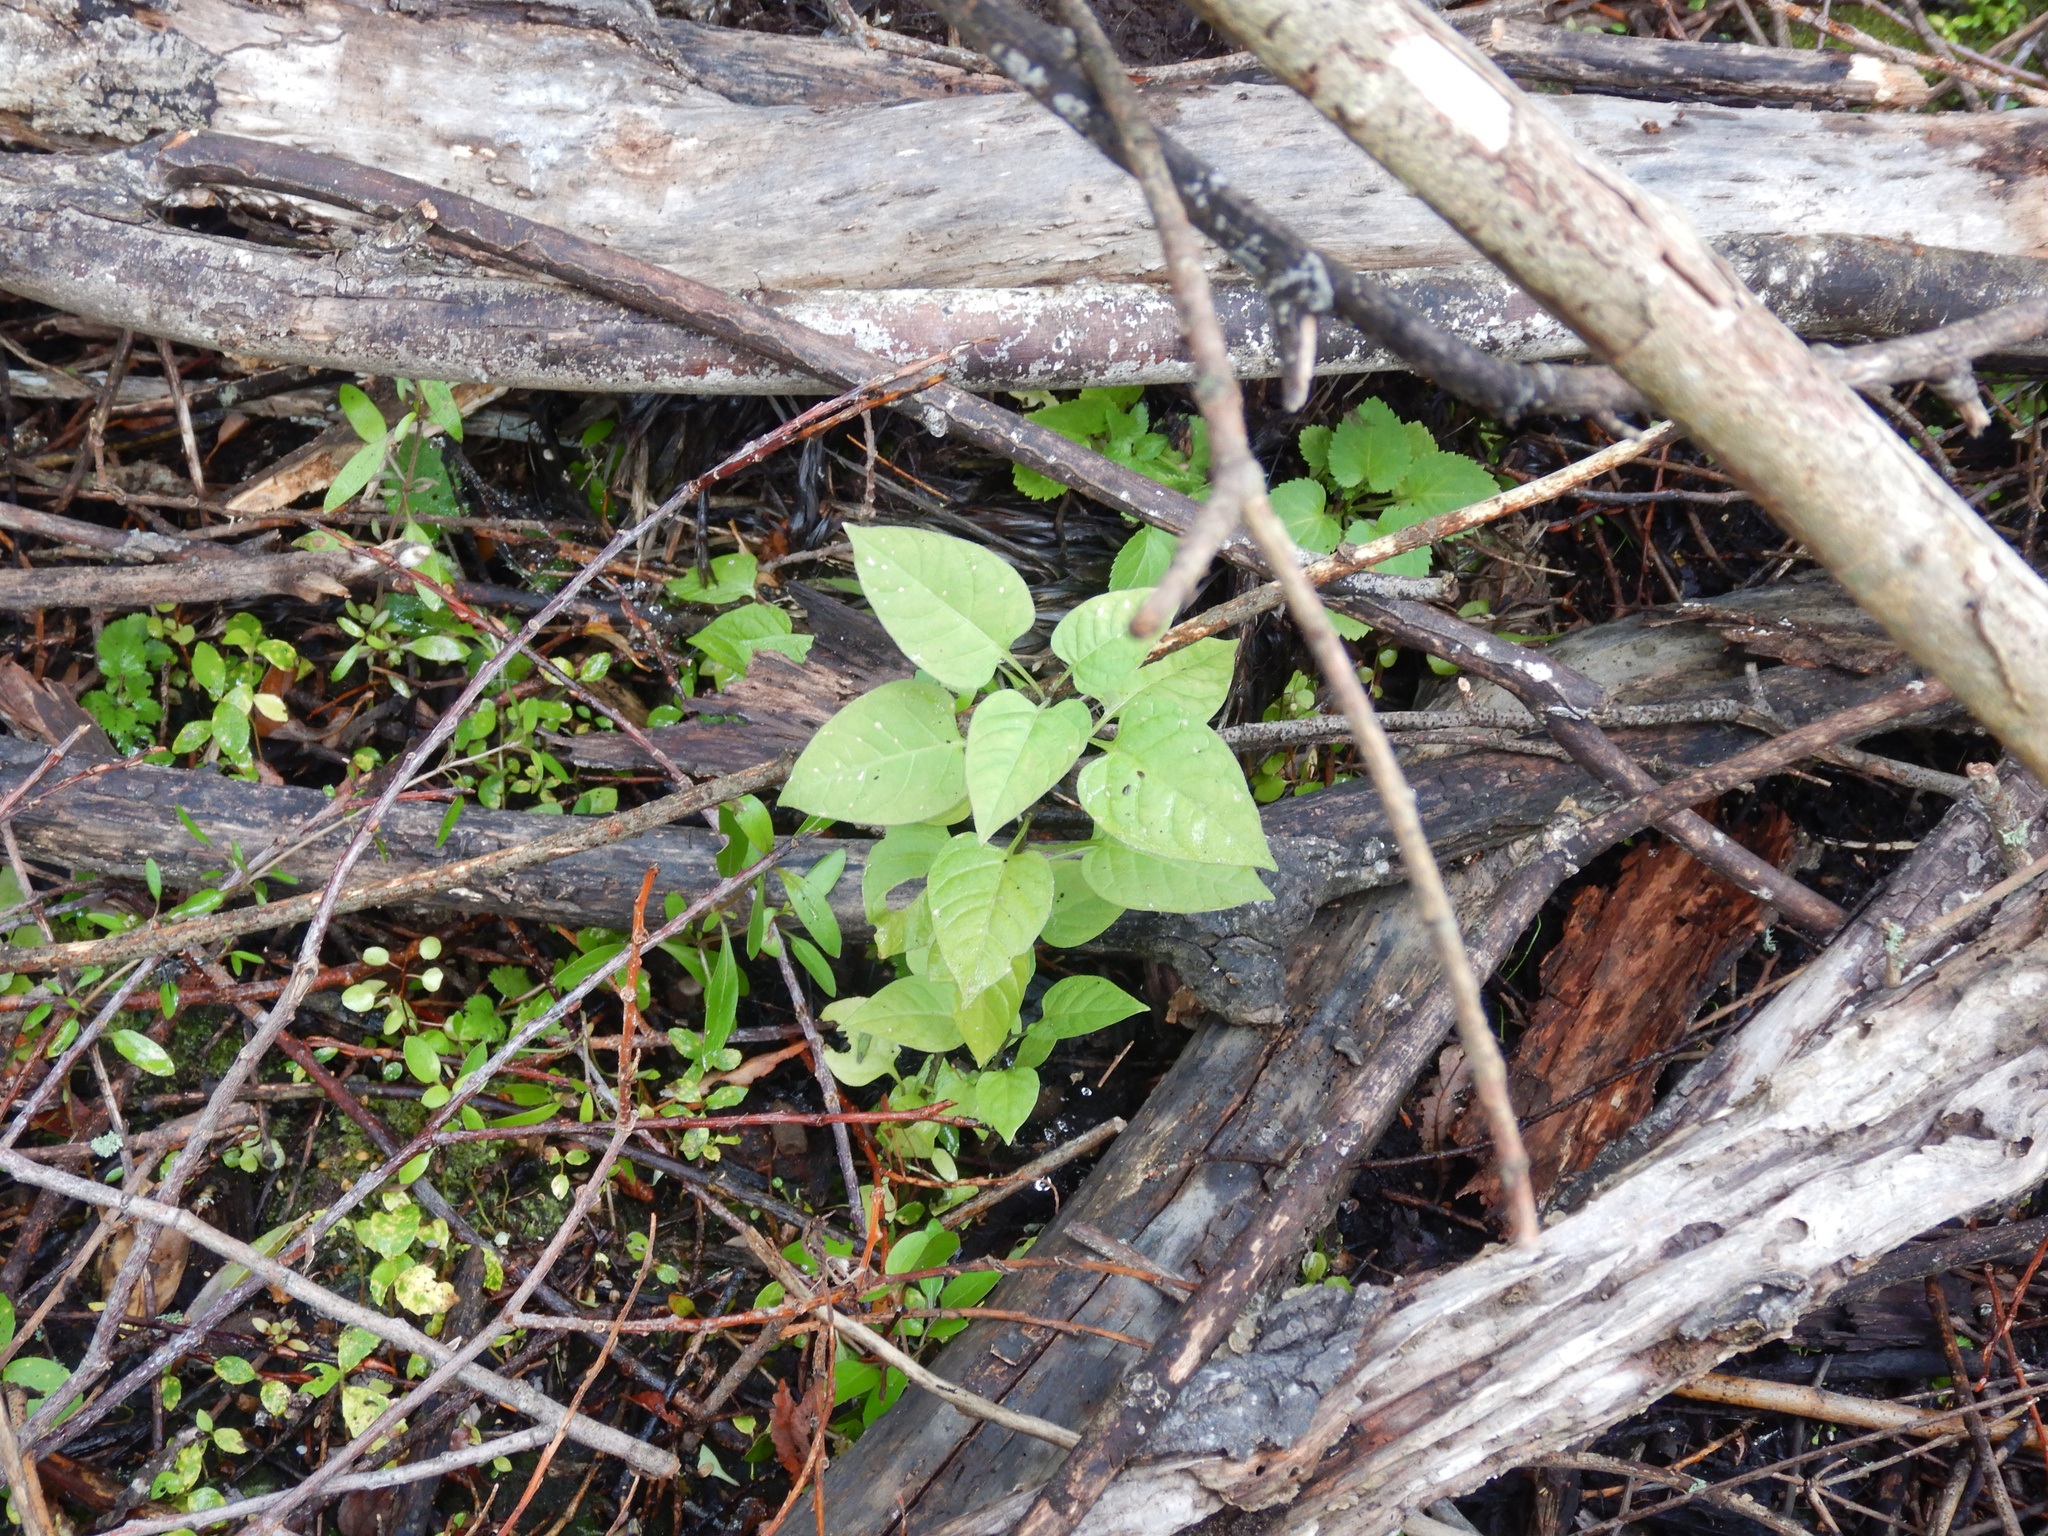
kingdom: Plantae
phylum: Tracheophyta
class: Magnoliopsida
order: Solanales
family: Solanaceae
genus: Solanum
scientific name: Solanum dulcamara
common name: Climbing nightshade
